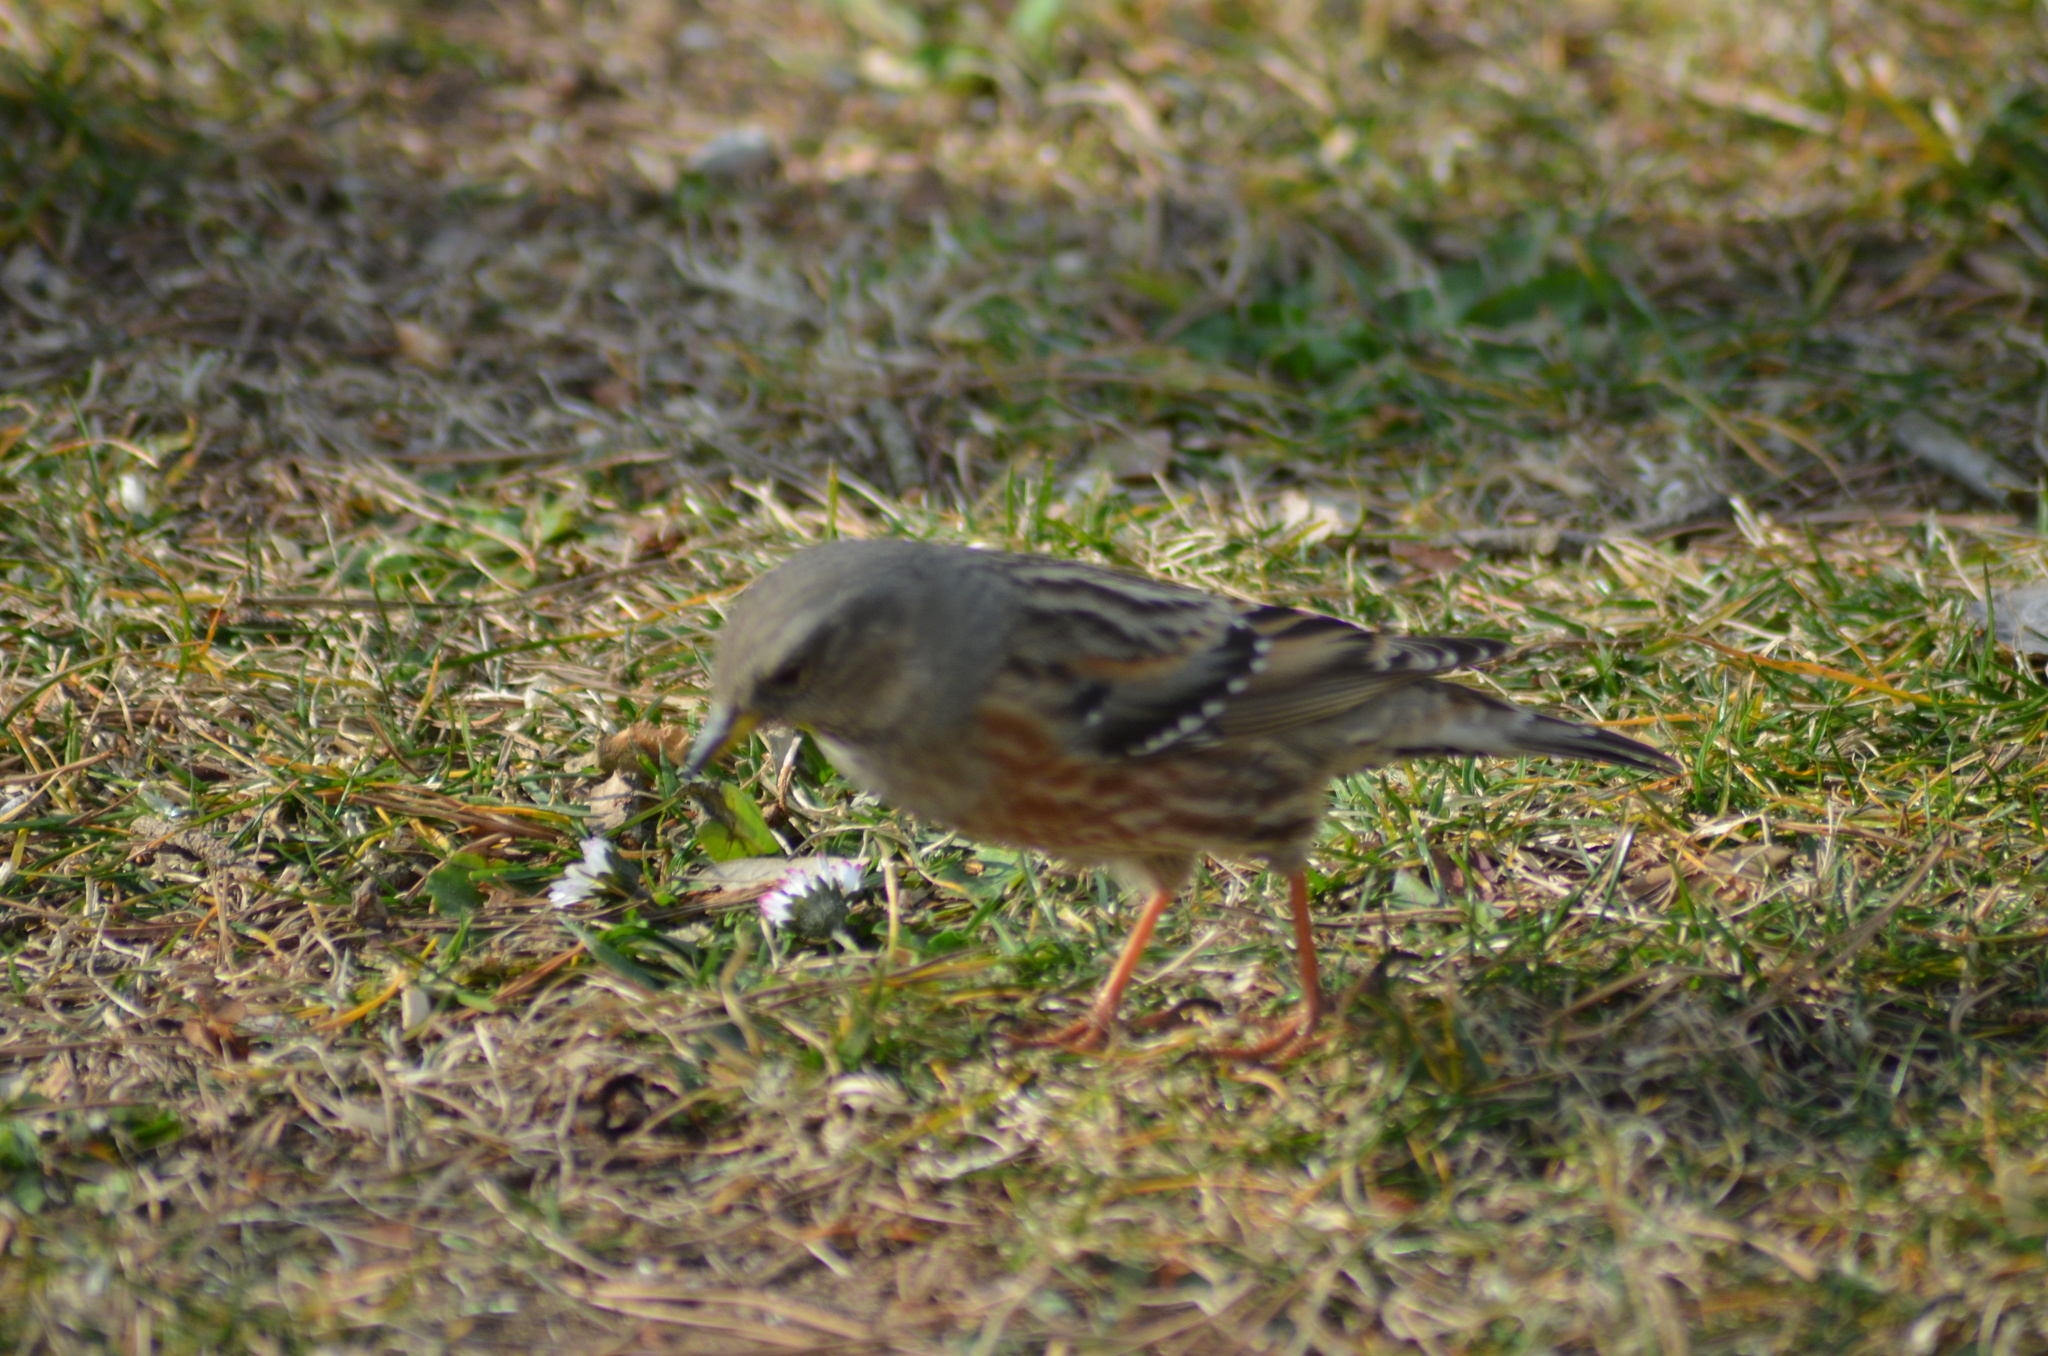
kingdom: Animalia
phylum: Chordata
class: Aves
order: Passeriformes
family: Prunellidae
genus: Prunella
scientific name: Prunella collaris
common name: Alpine accentor
